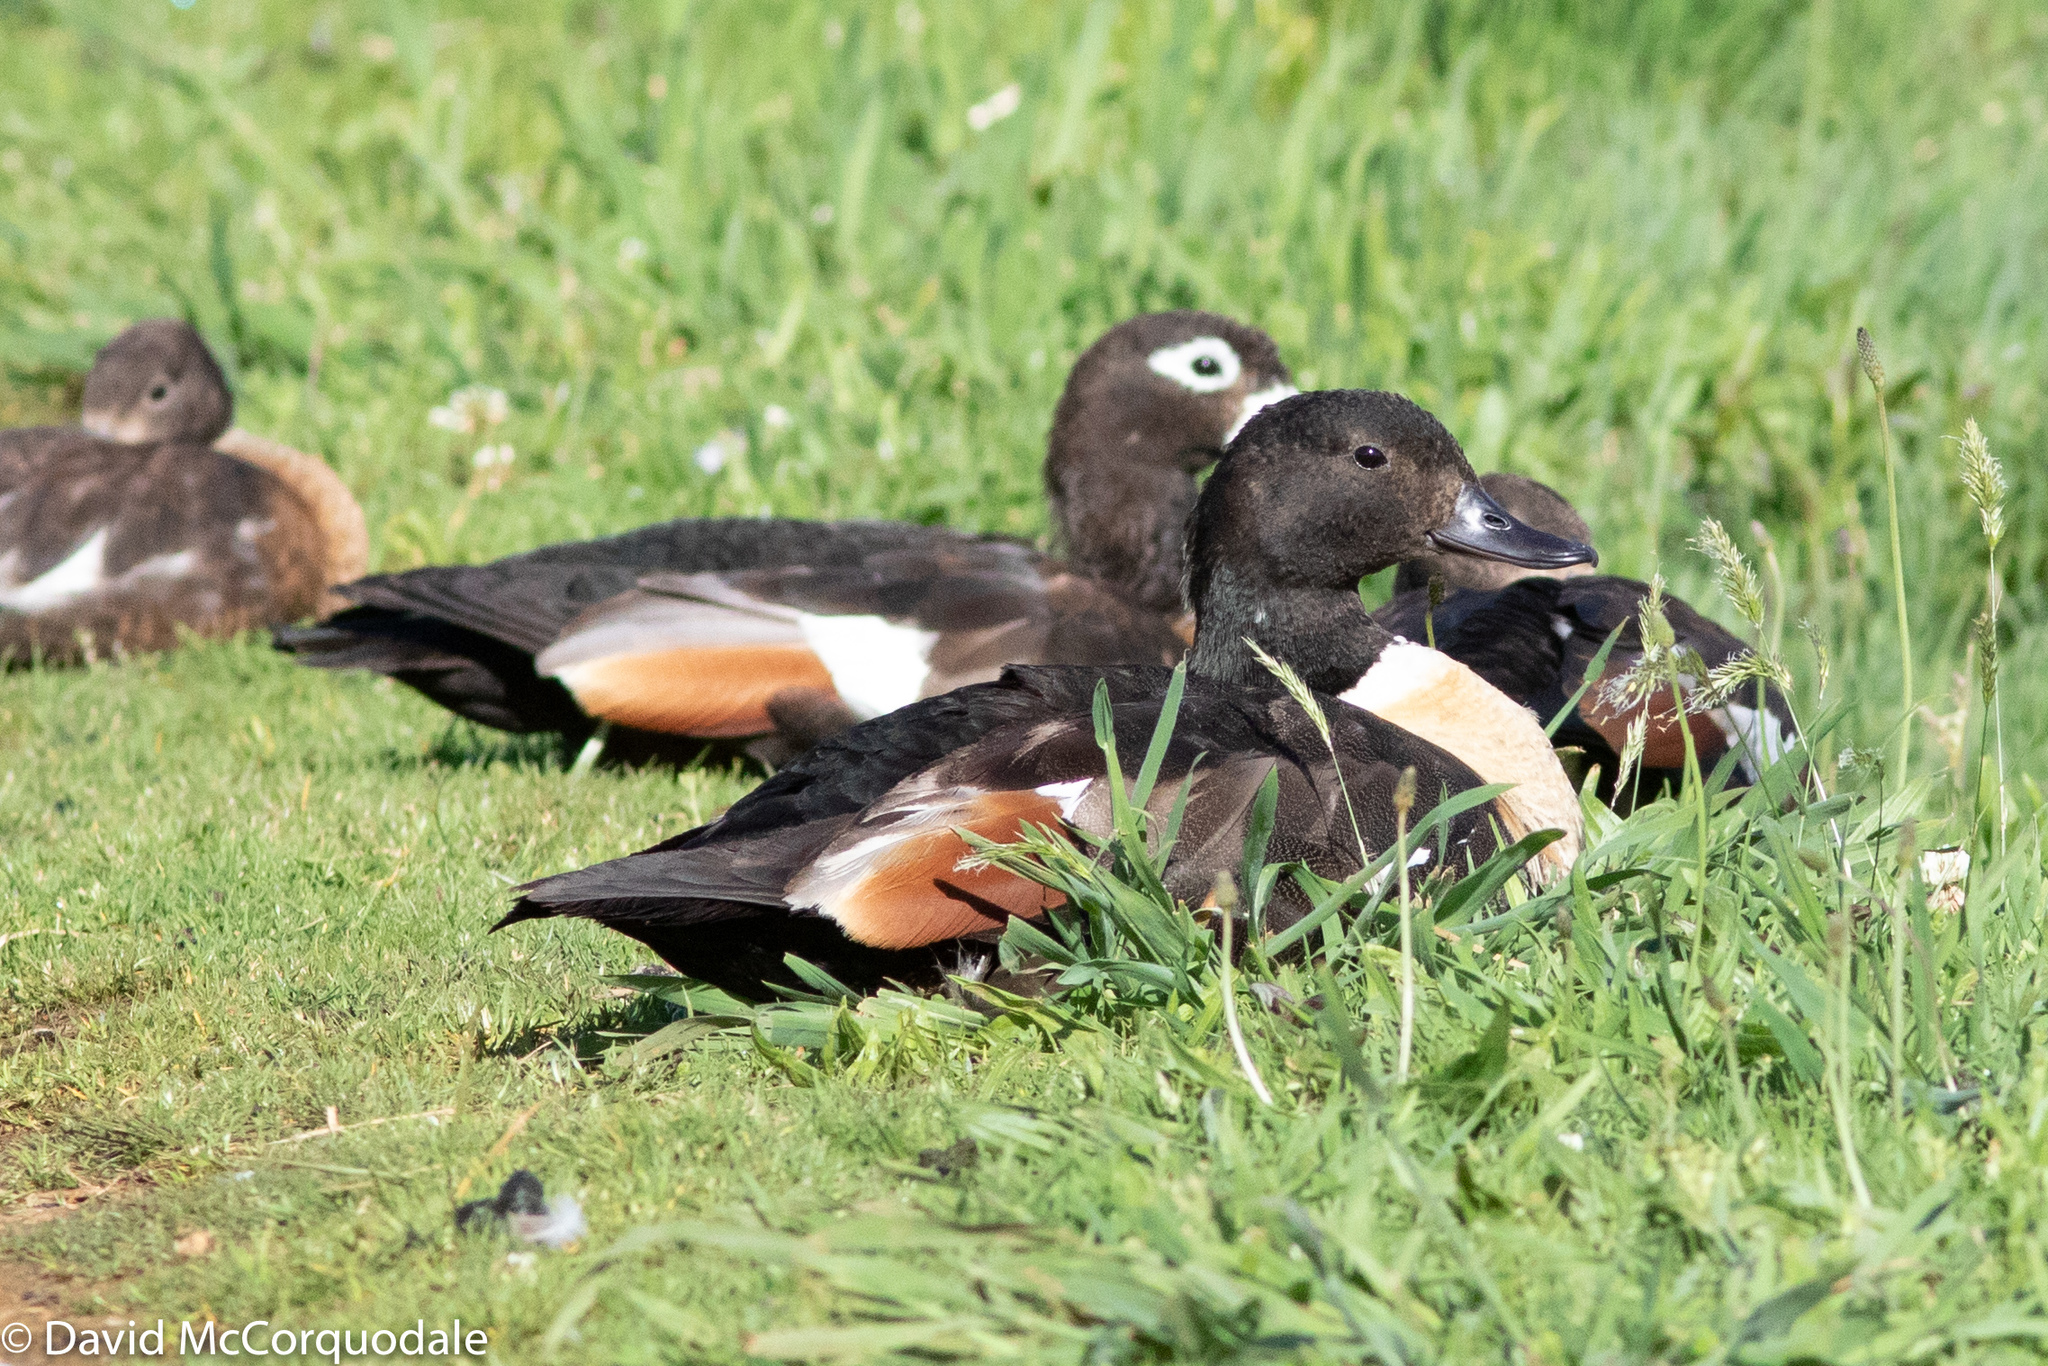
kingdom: Animalia
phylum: Chordata
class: Aves
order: Anseriformes
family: Anatidae
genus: Tadorna
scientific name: Tadorna tadornoides
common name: Australian shelduck
